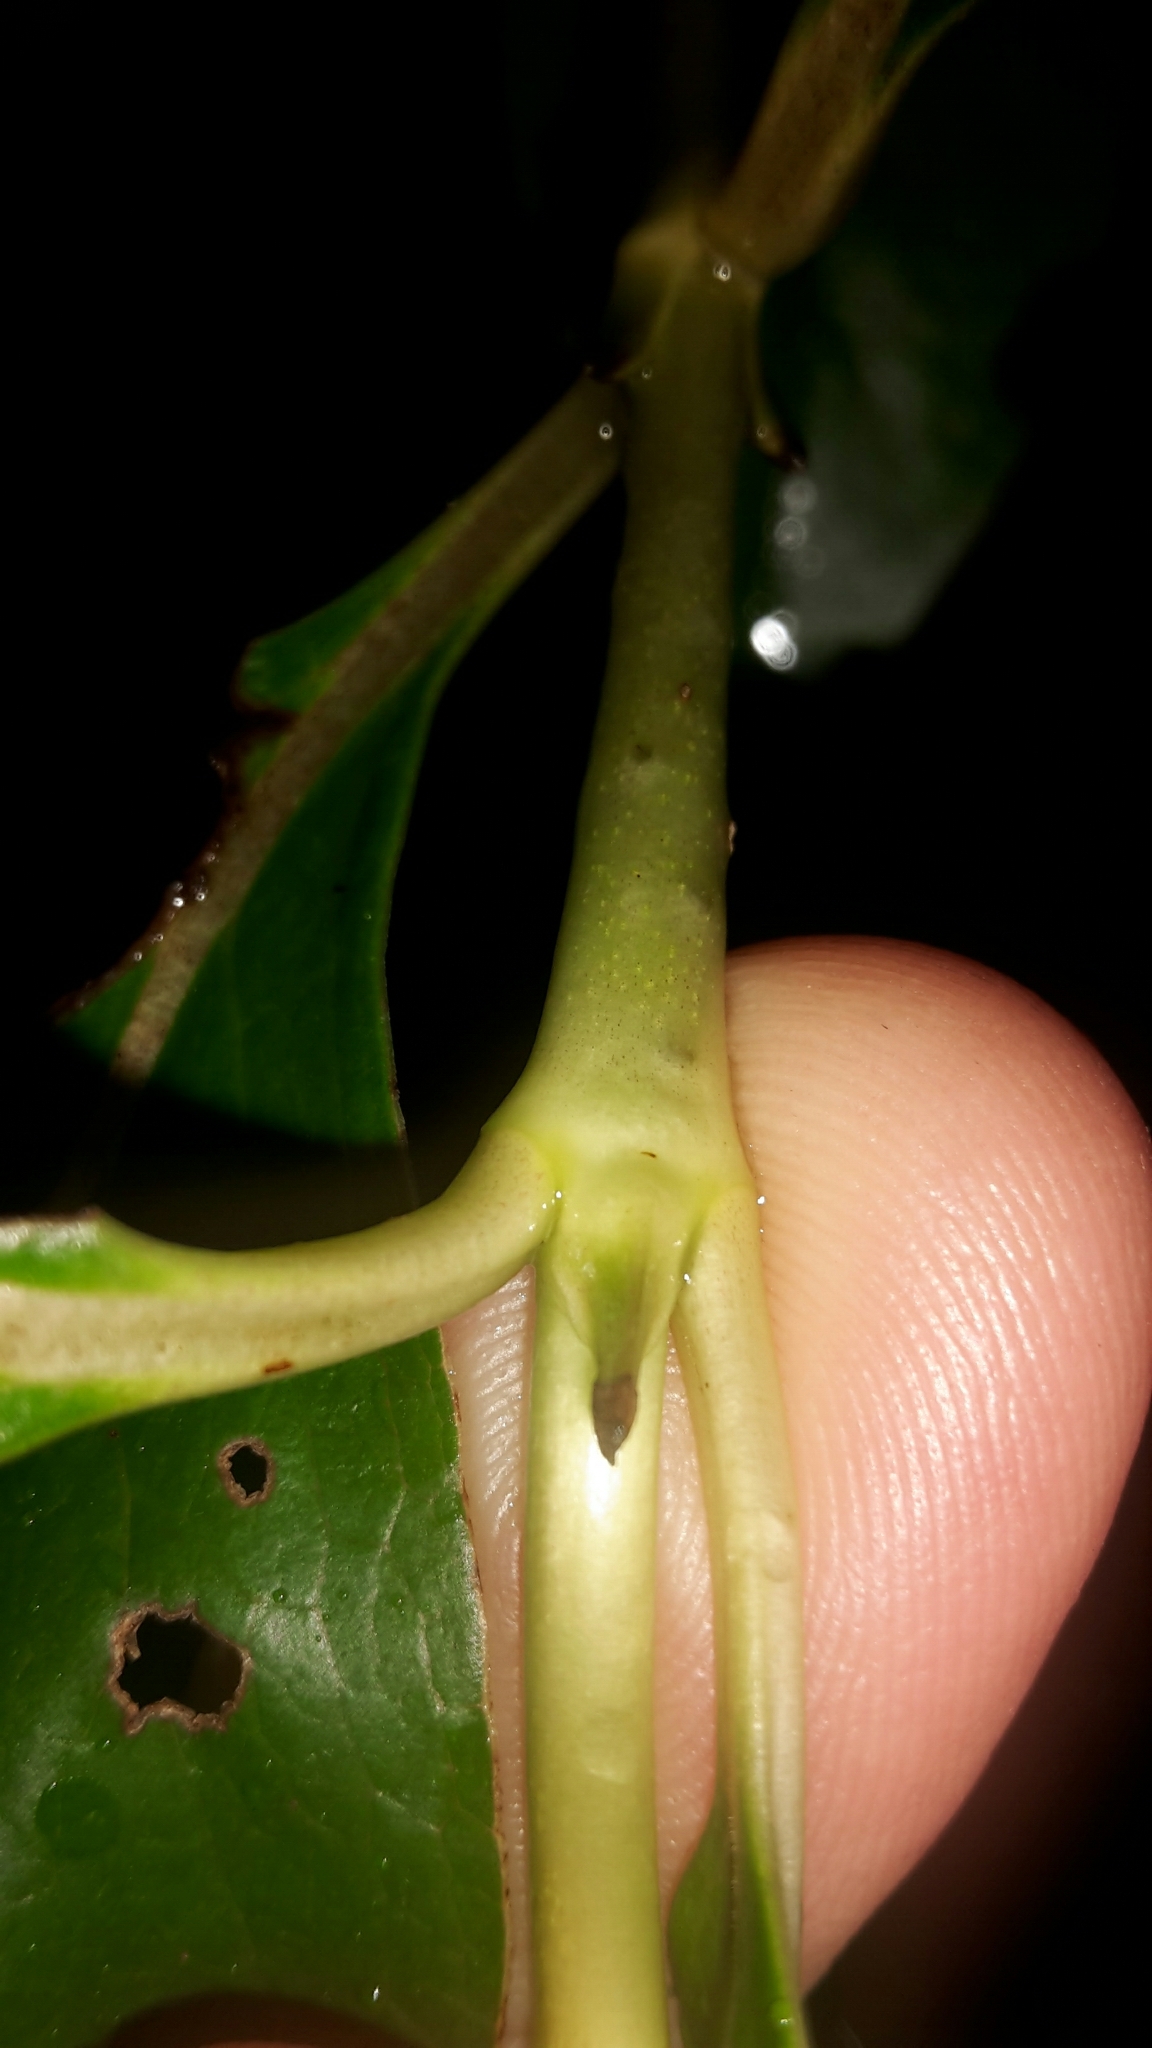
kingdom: Plantae
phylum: Tracheophyta
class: Magnoliopsida
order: Gentianales
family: Rubiaceae
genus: Coprosma
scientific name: Coprosma robusta
